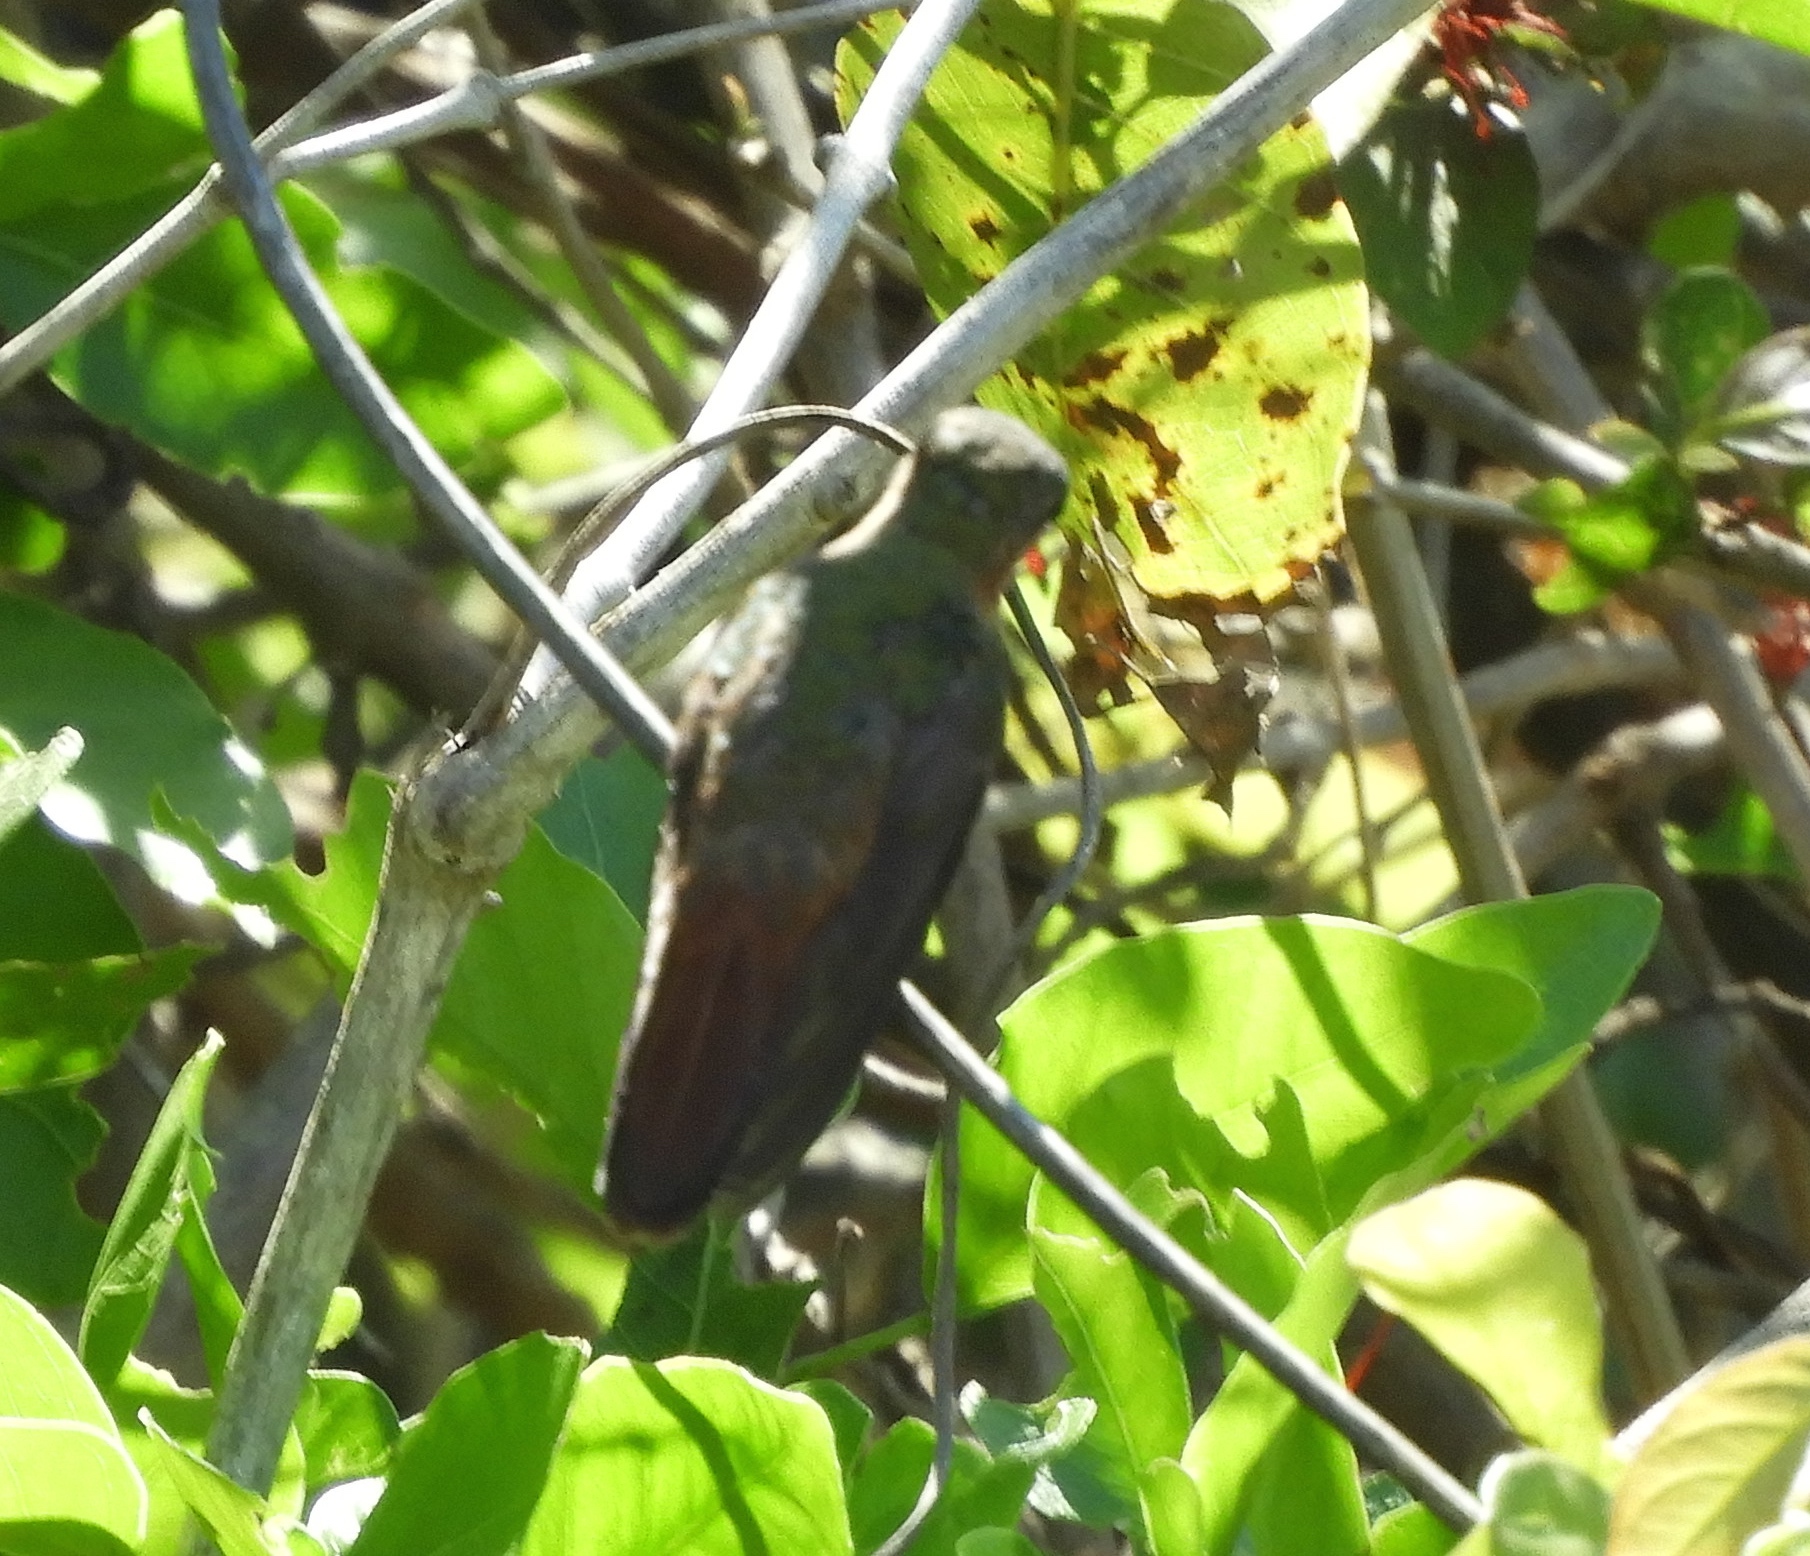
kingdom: Animalia
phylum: Chordata
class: Aves
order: Apodiformes
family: Trochilidae
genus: Amazilia
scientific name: Amazilia rutila
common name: Cinnamon hummingbird
